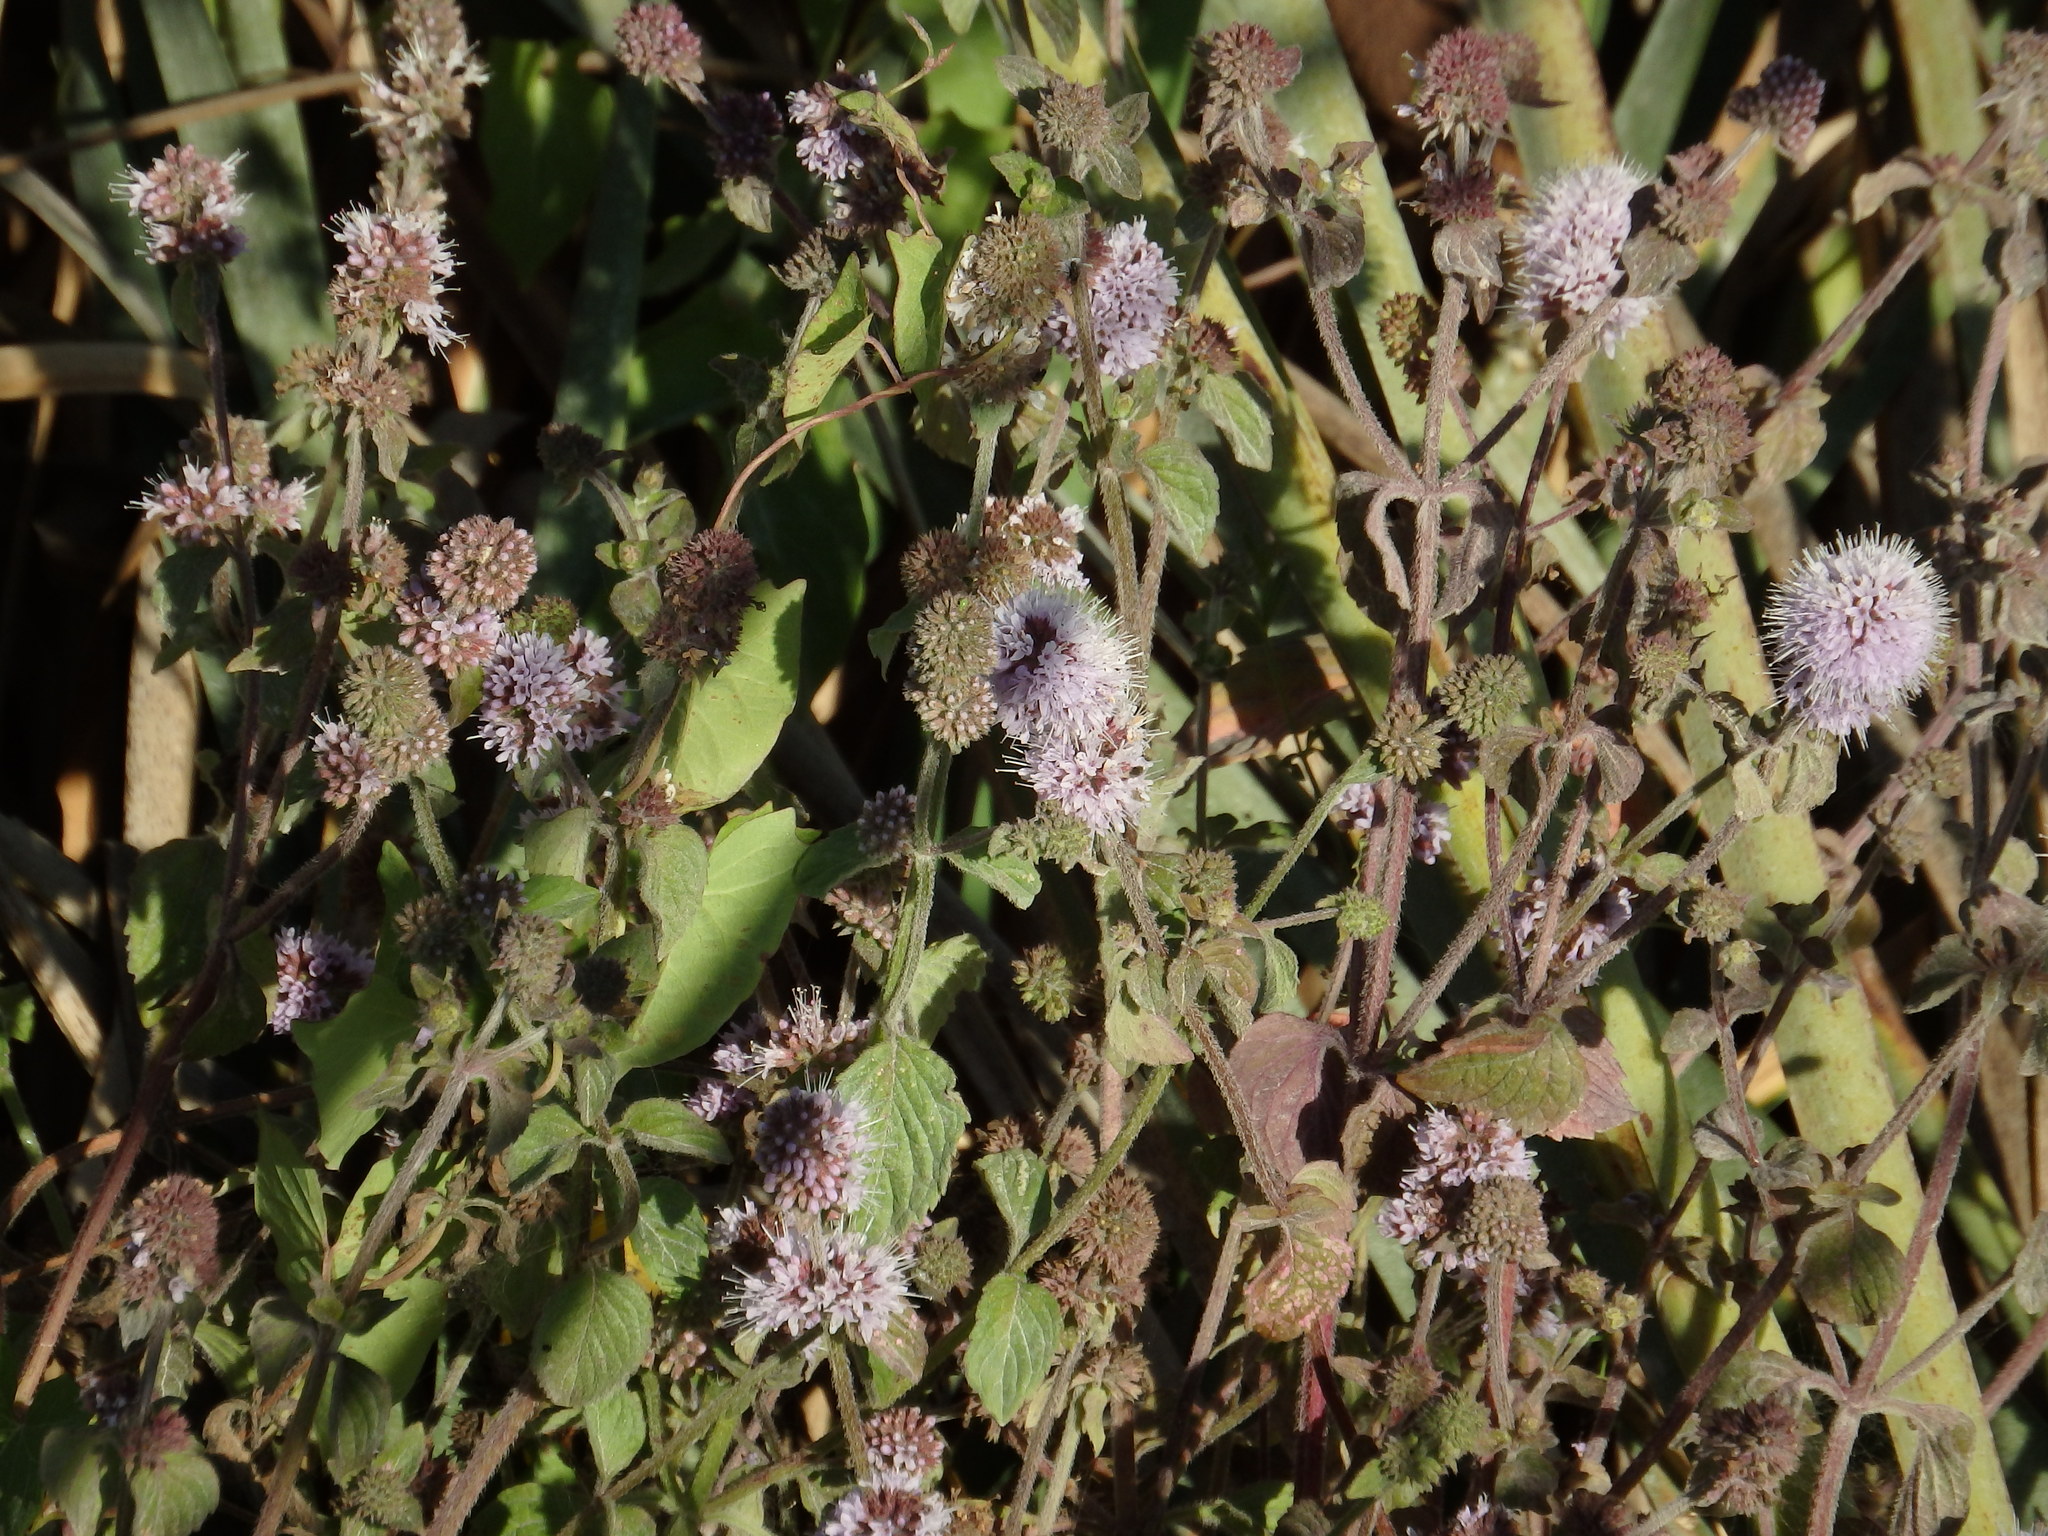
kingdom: Plantae
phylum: Tracheophyta
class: Magnoliopsida
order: Lamiales
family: Lamiaceae
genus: Mentha
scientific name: Mentha aquatica
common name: Water mint
